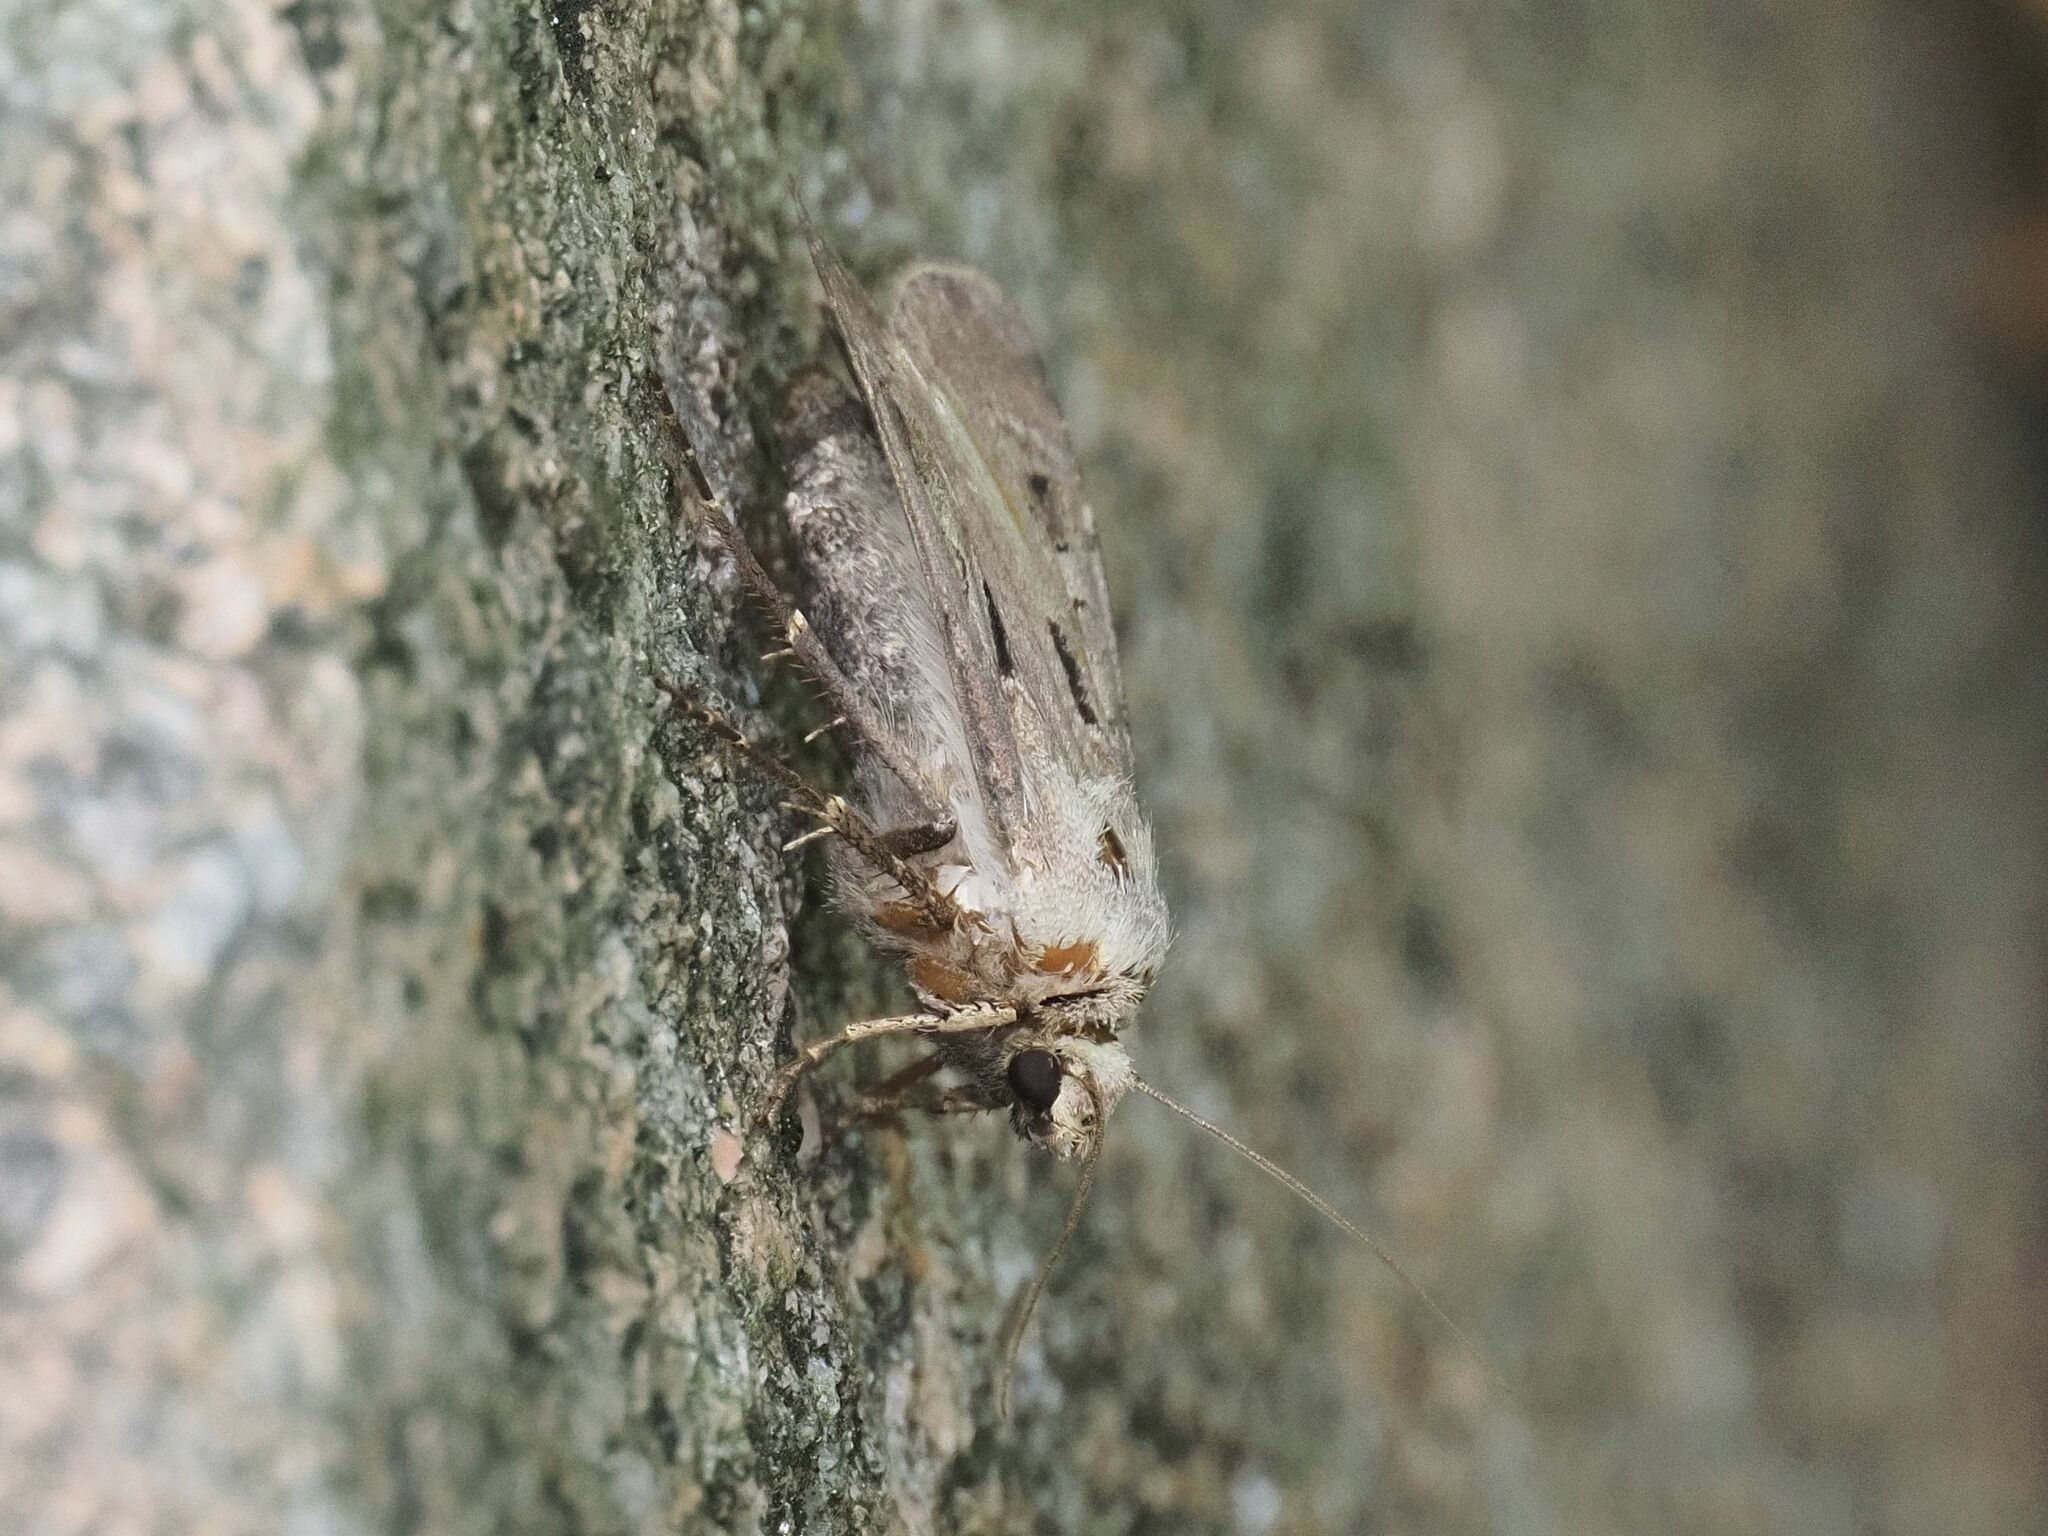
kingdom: Animalia
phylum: Arthropoda
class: Insecta
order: Lepidoptera
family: Noctuidae
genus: Agrotis
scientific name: Agrotis exclamationis
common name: Heart and dart
